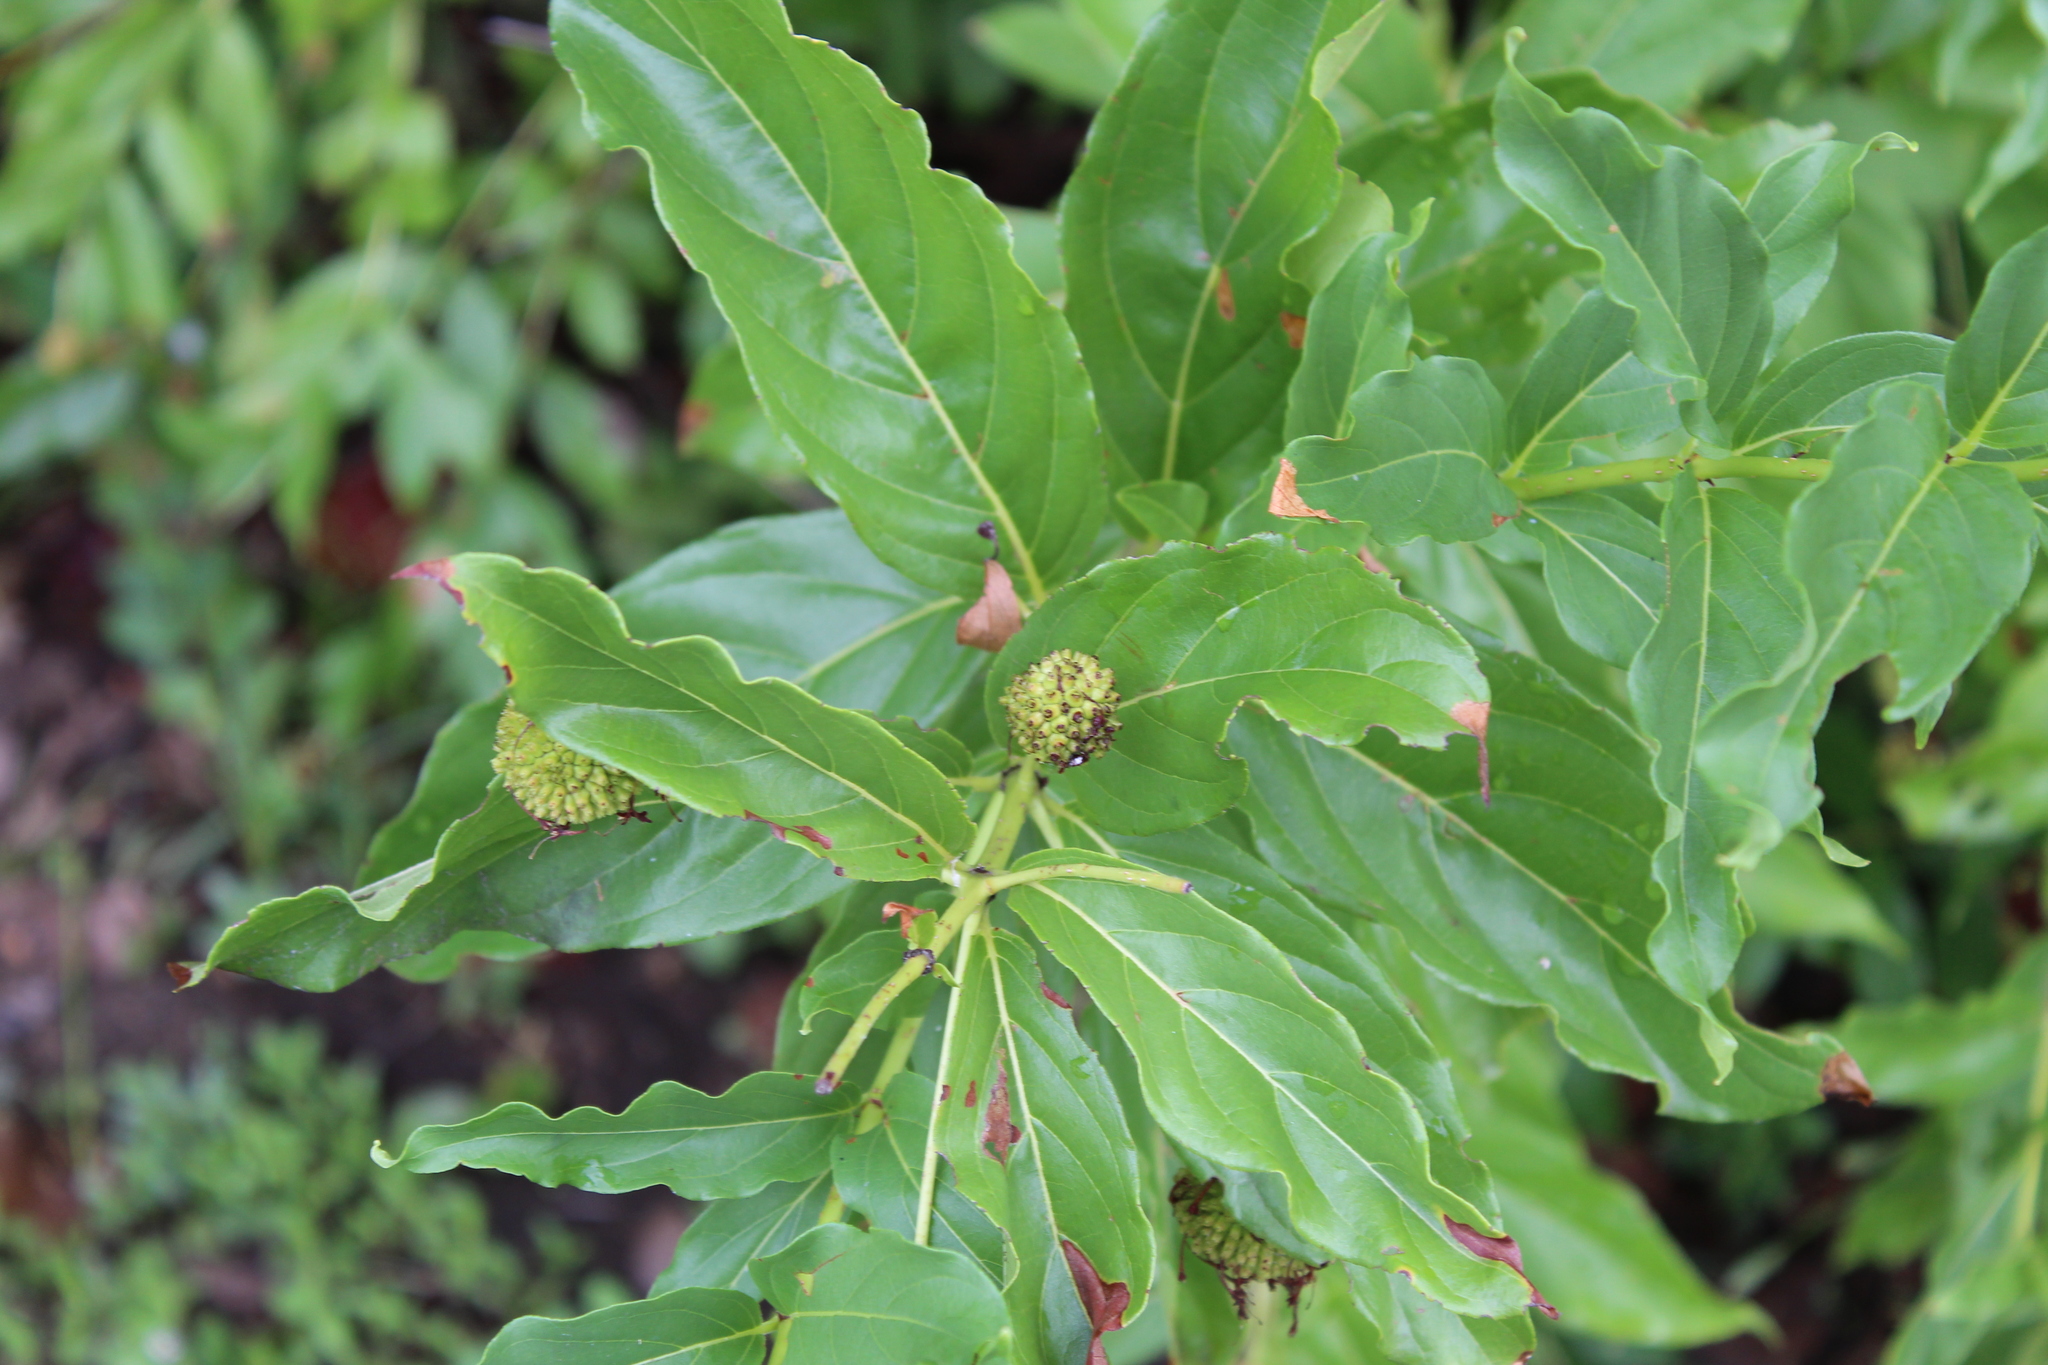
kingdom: Plantae
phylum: Tracheophyta
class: Magnoliopsida
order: Gentianales
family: Rubiaceae
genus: Cephalanthus
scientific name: Cephalanthus occidentalis
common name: Button-willow
